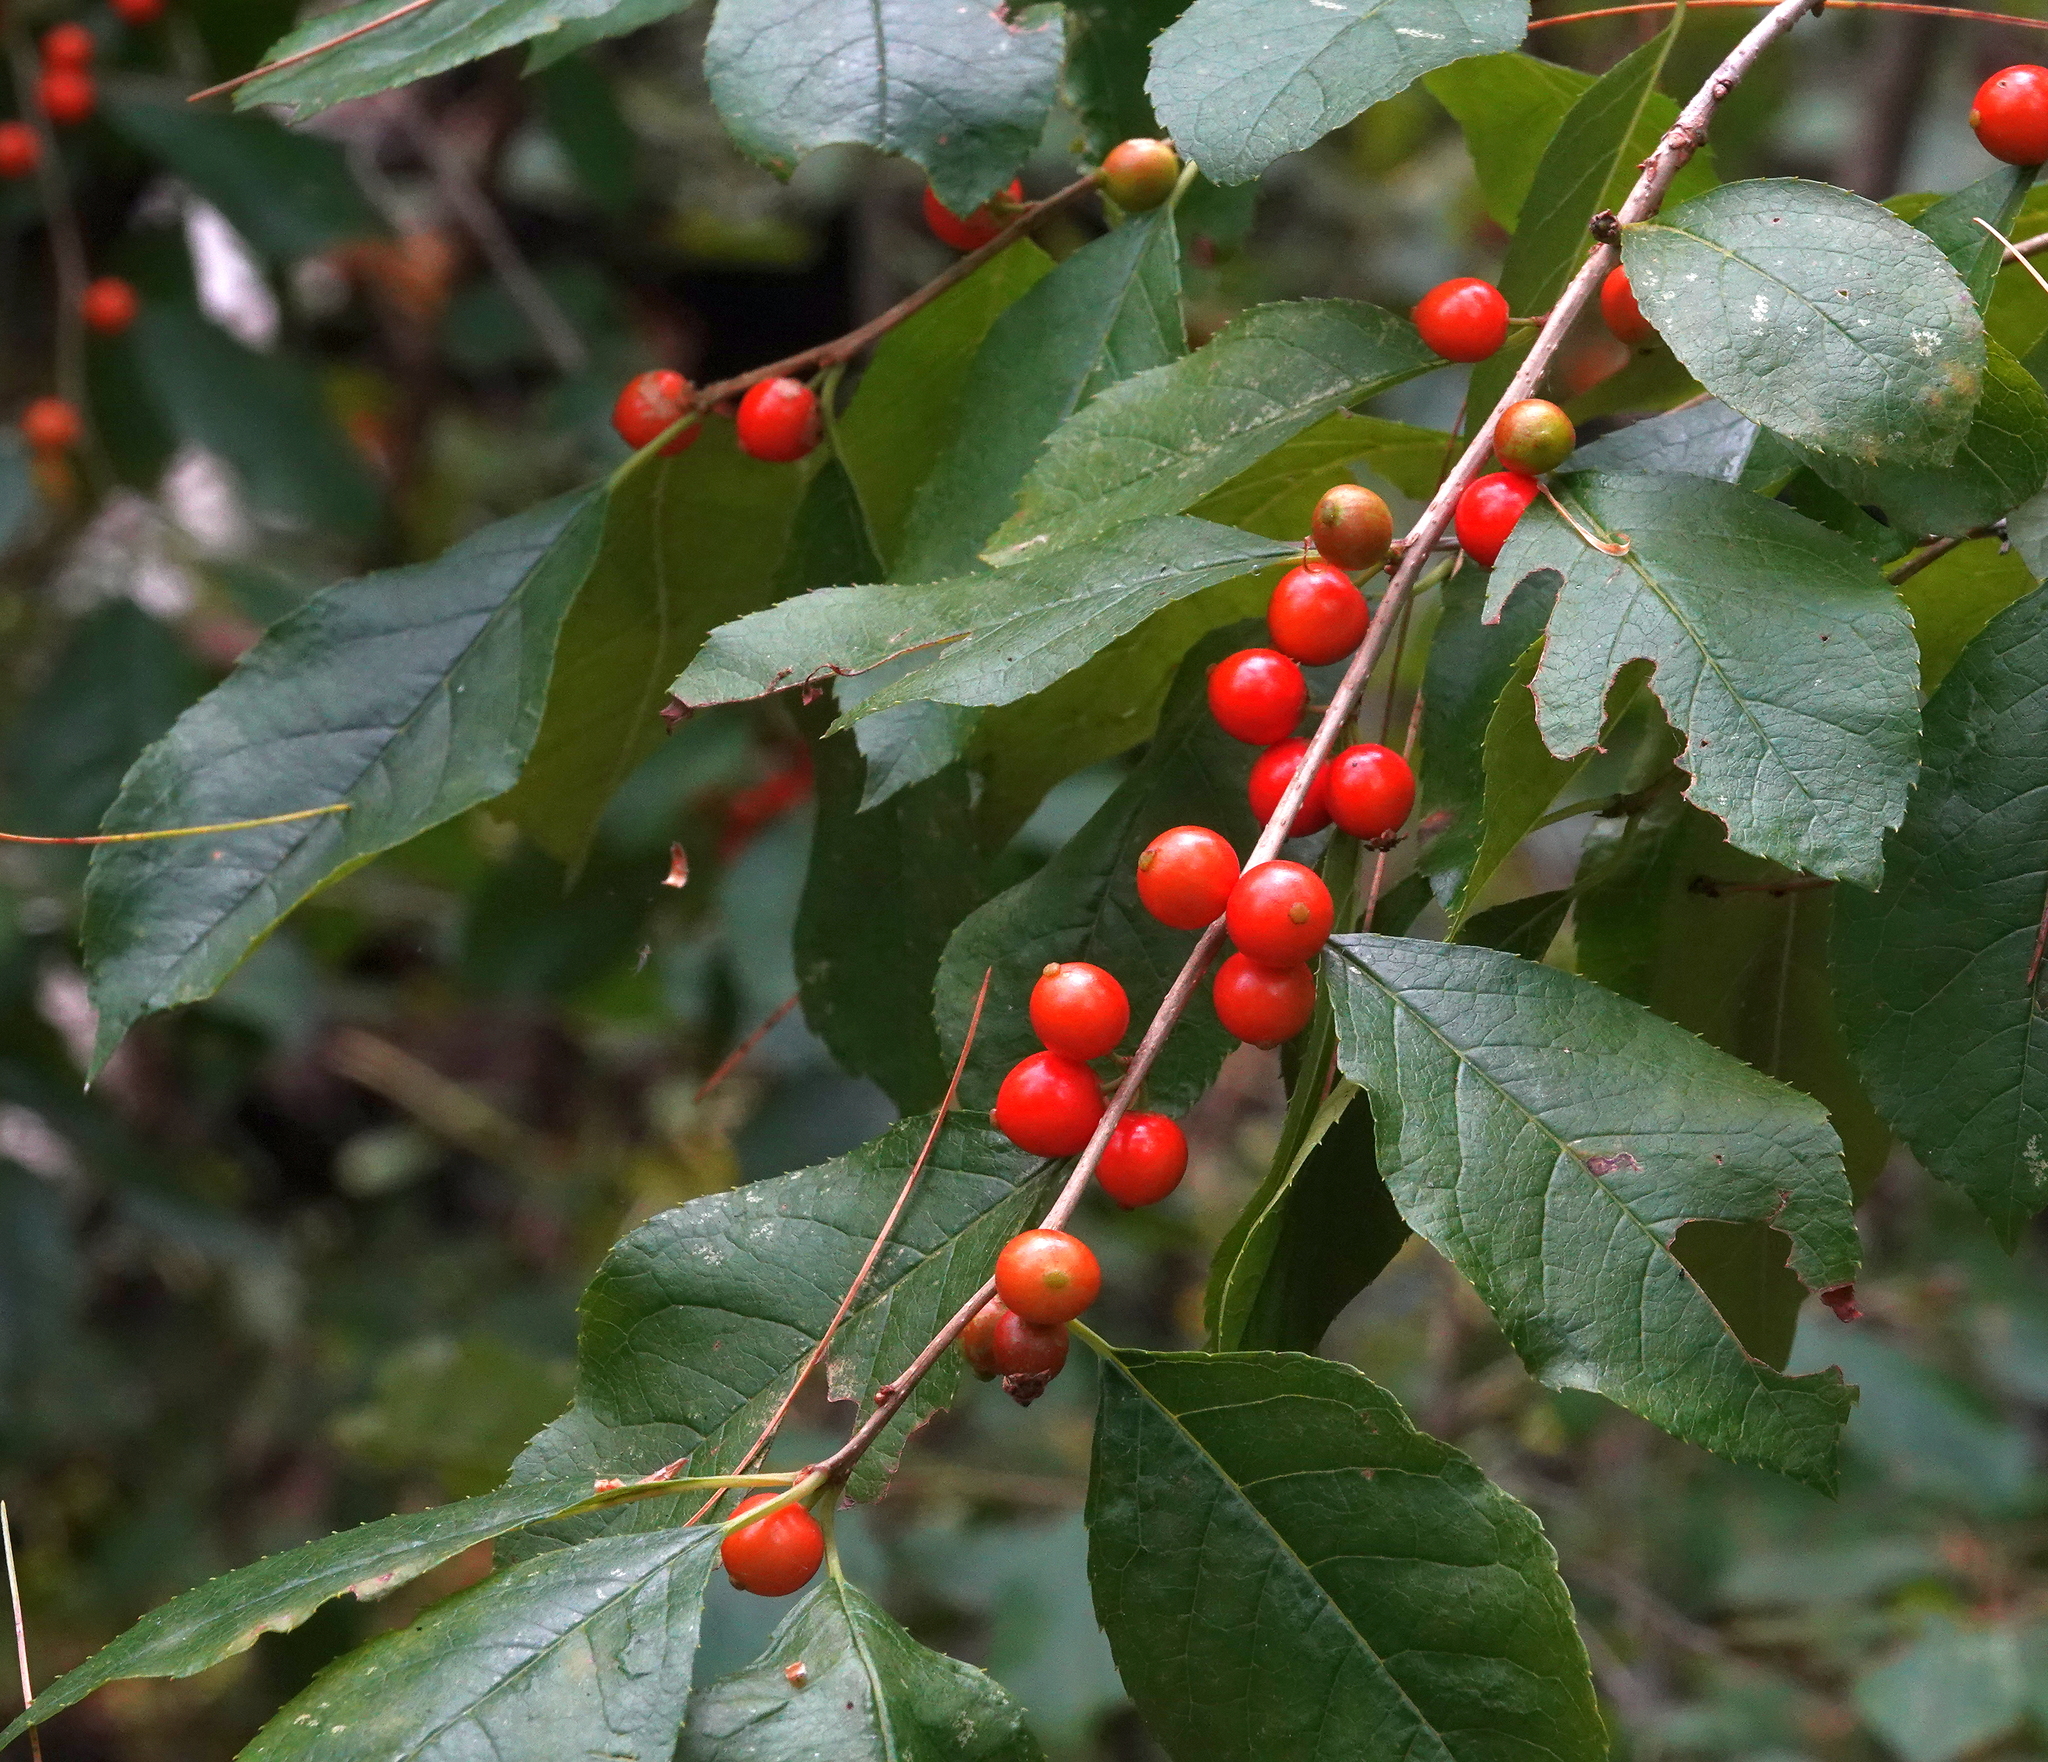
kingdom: Plantae
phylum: Tracheophyta
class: Magnoliopsida
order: Aquifoliales
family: Aquifoliaceae
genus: Ilex
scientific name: Ilex verticillata
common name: Virginia winterberry
